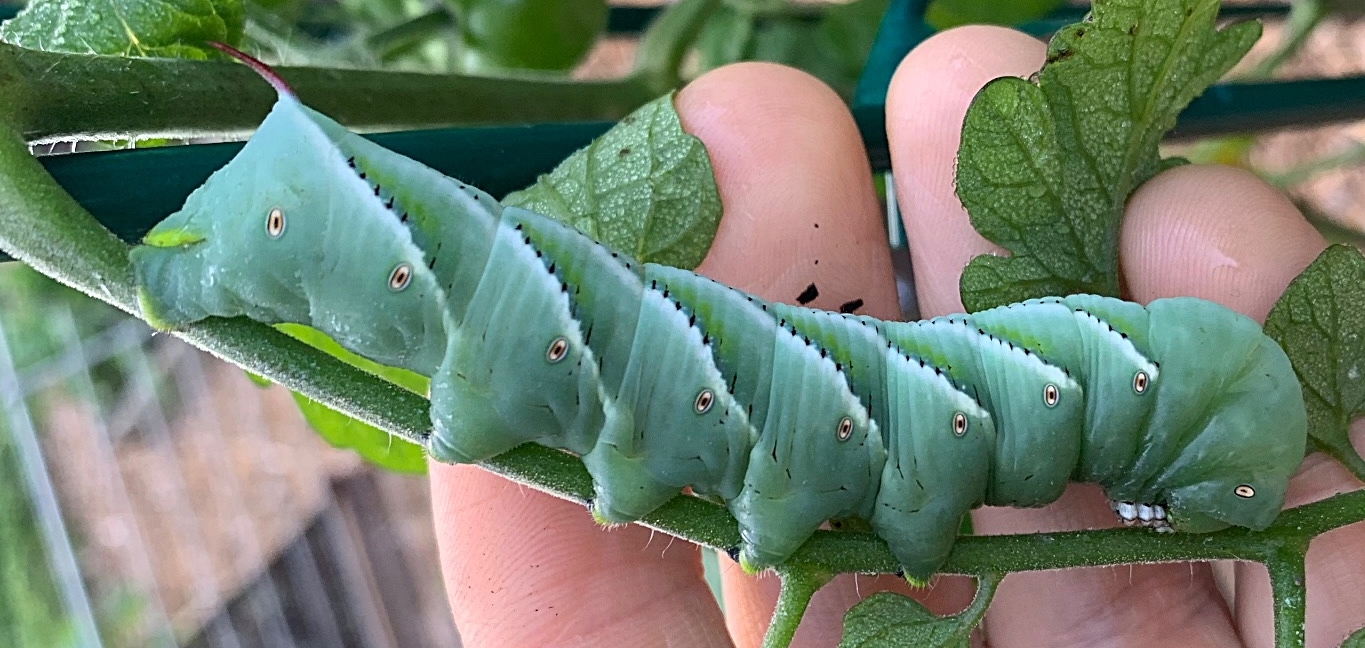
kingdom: Animalia
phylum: Arthropoda
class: Insecta
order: Lepidoptera
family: Sphingidae
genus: Manduca
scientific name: Manduca sexta
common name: Carolina sphinx
